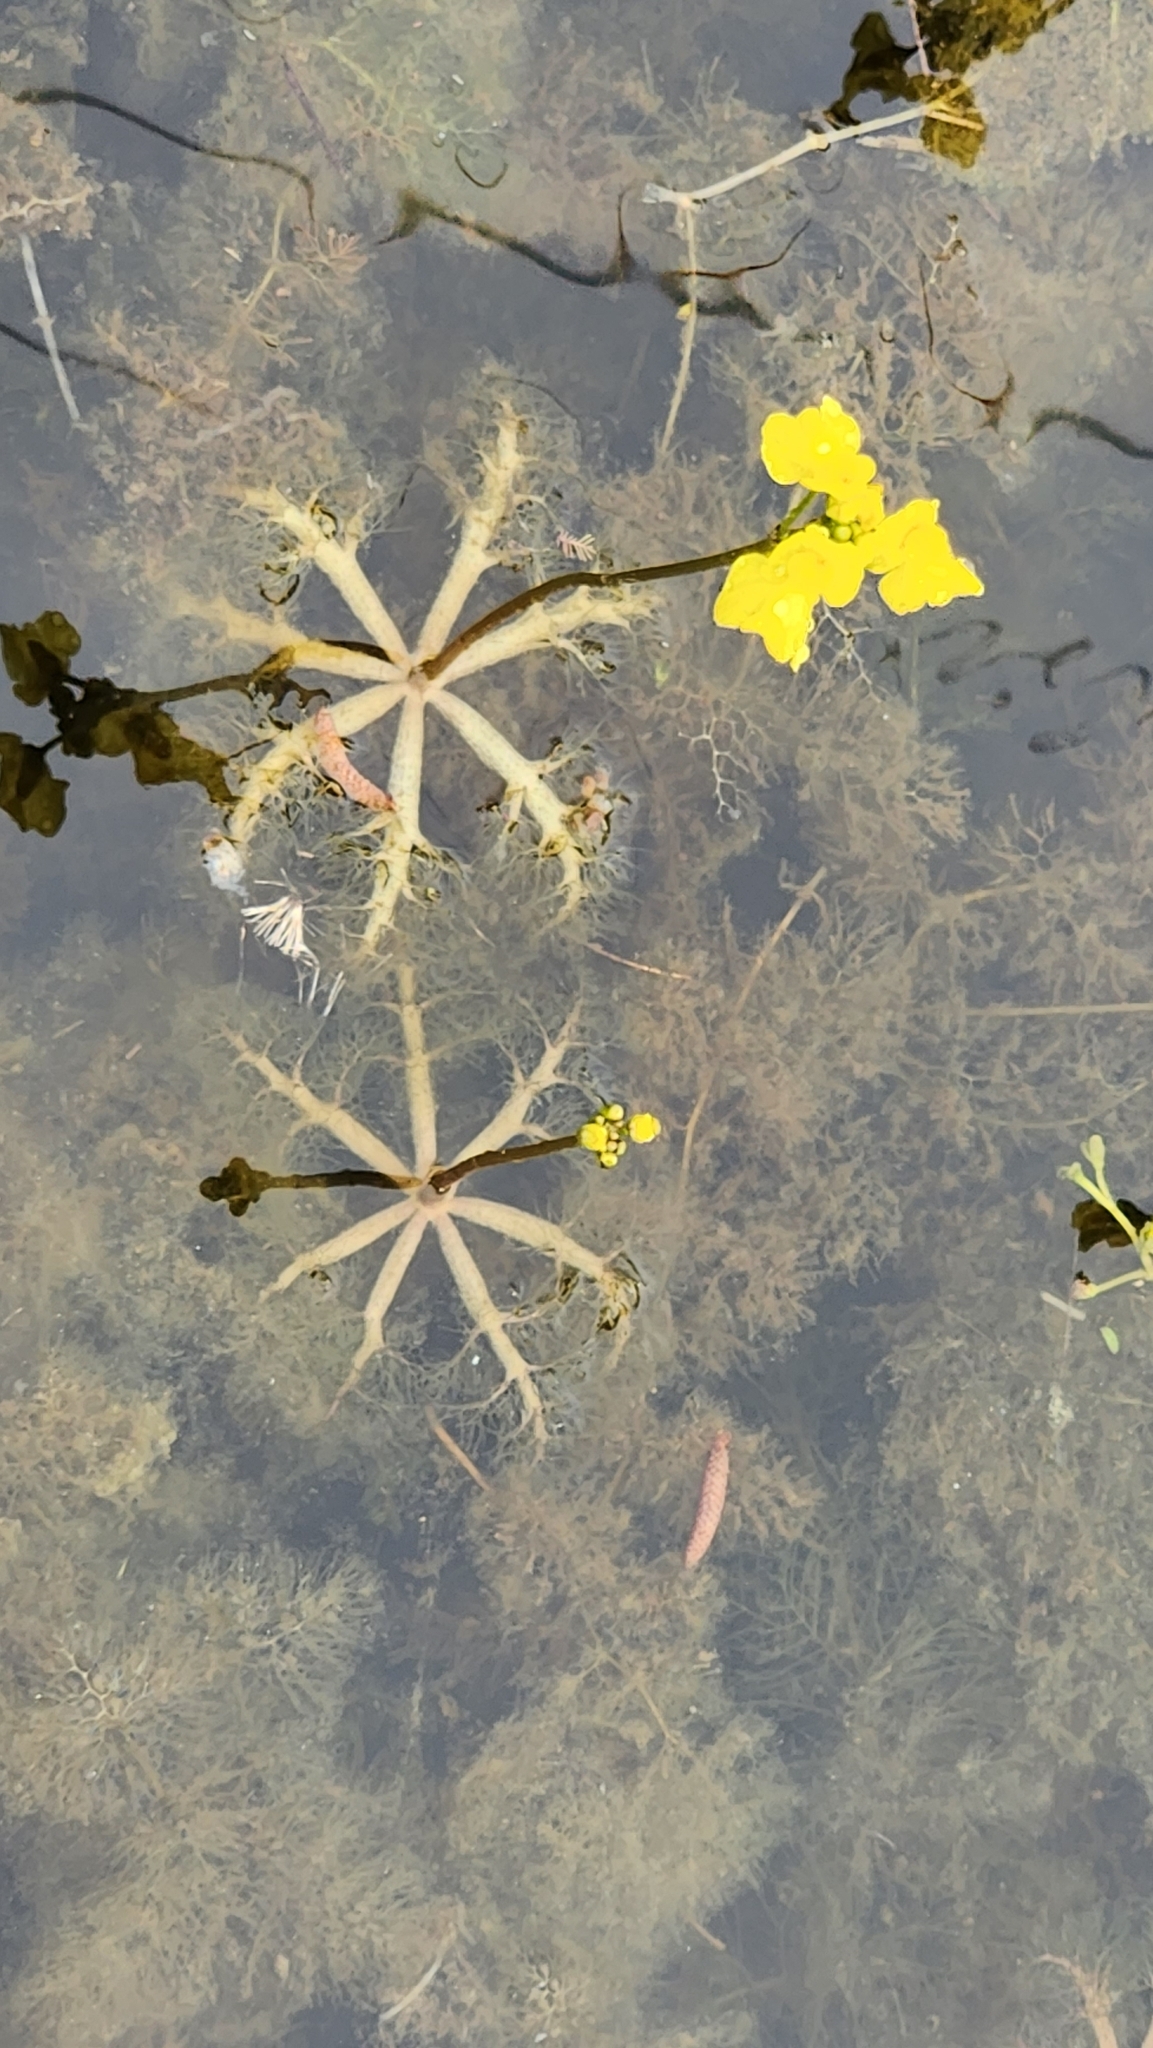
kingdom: Plantae
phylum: Tracheophyta
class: Magnoliopsida
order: Lamiales
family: Lentibulariaceae
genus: Utricularia
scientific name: Utricularia inflata
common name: Floating bladderwort
